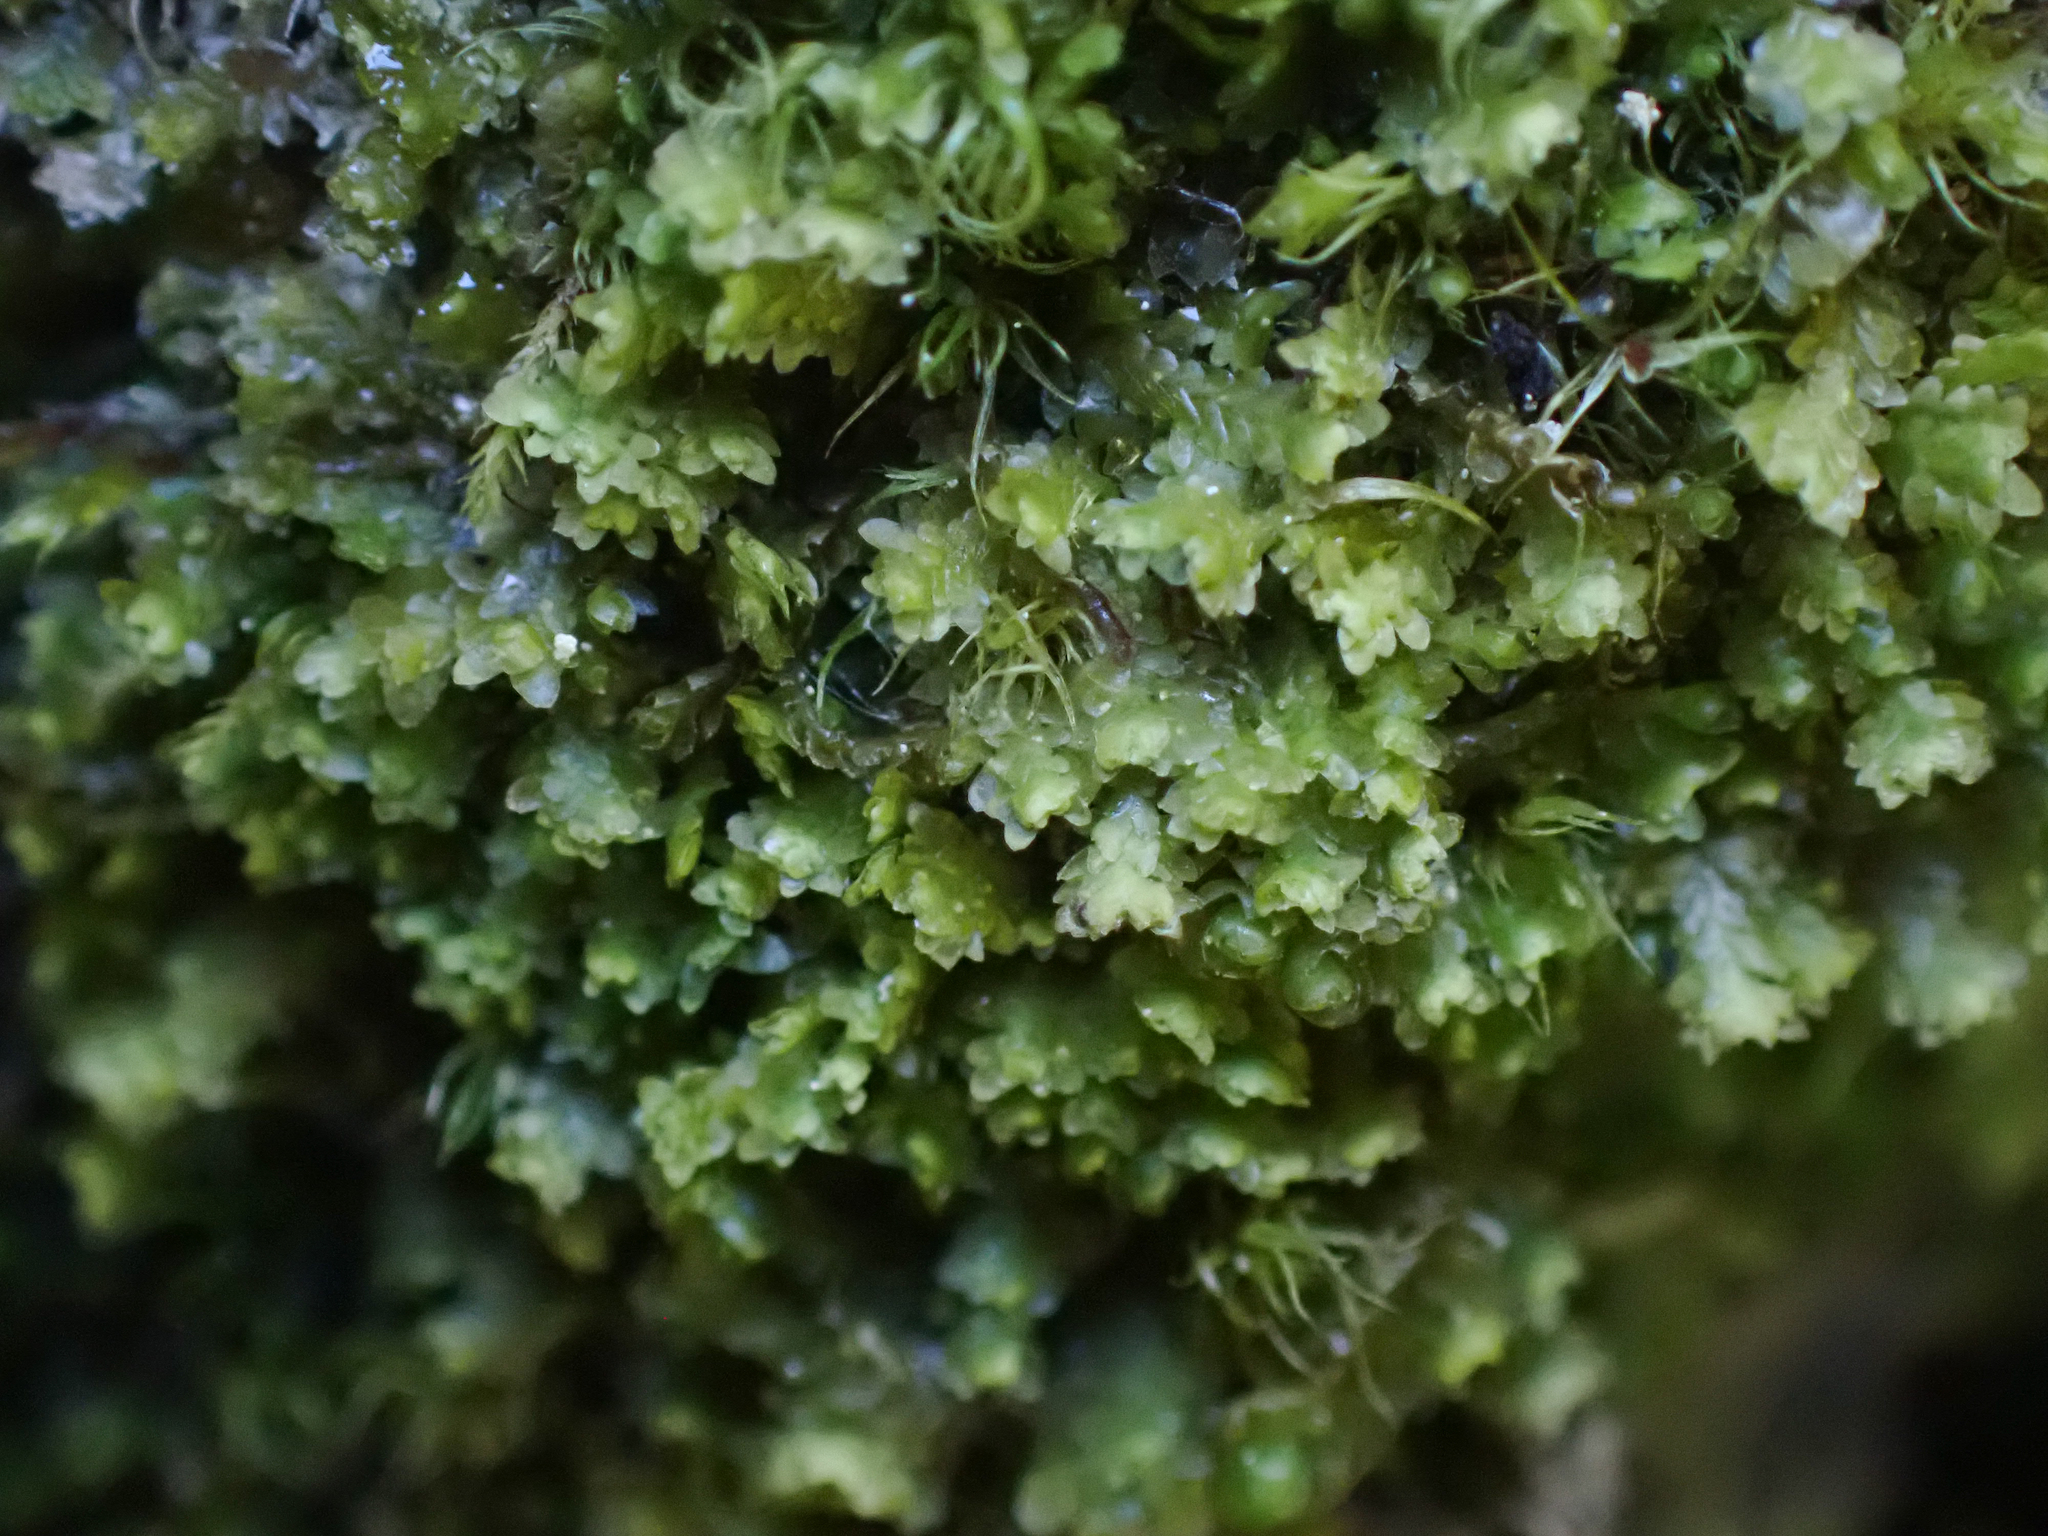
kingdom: Plantae
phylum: Marchantiophyta
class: Jungermanniopsida
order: Jungermanniales
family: Scapaniaceae
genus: Diplophyllum
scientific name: Diplophyllum taxifolium
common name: Alpine earwort
